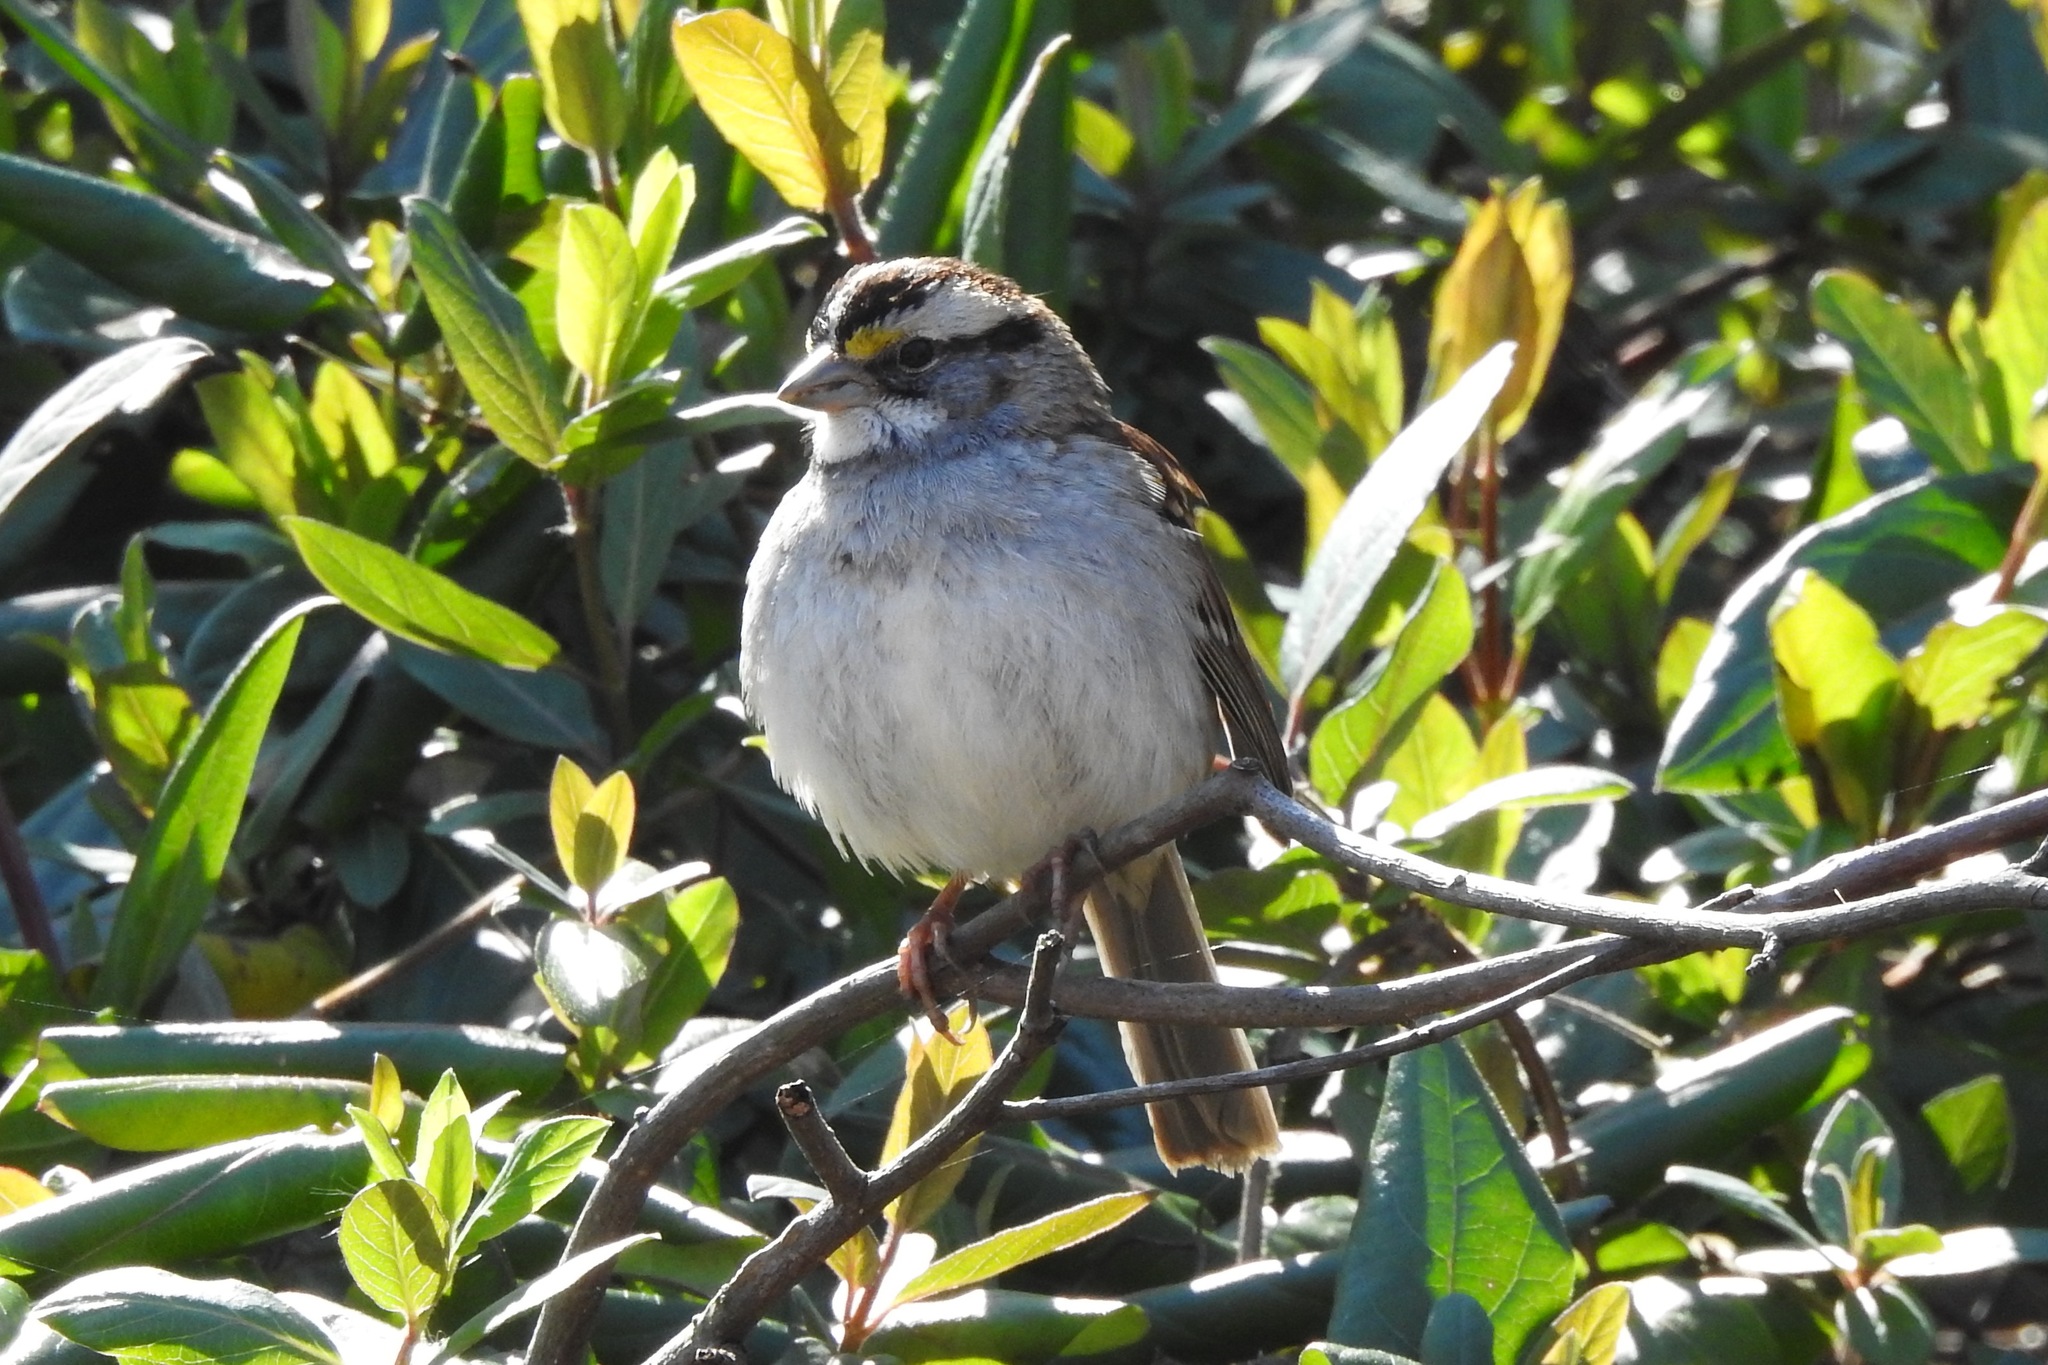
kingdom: Animalia
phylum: Chordata
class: Aves
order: Passeriformes
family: Passerellidae
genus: Zonotrichia
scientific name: Zonotrichia albicollis
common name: White-throated sparrow
